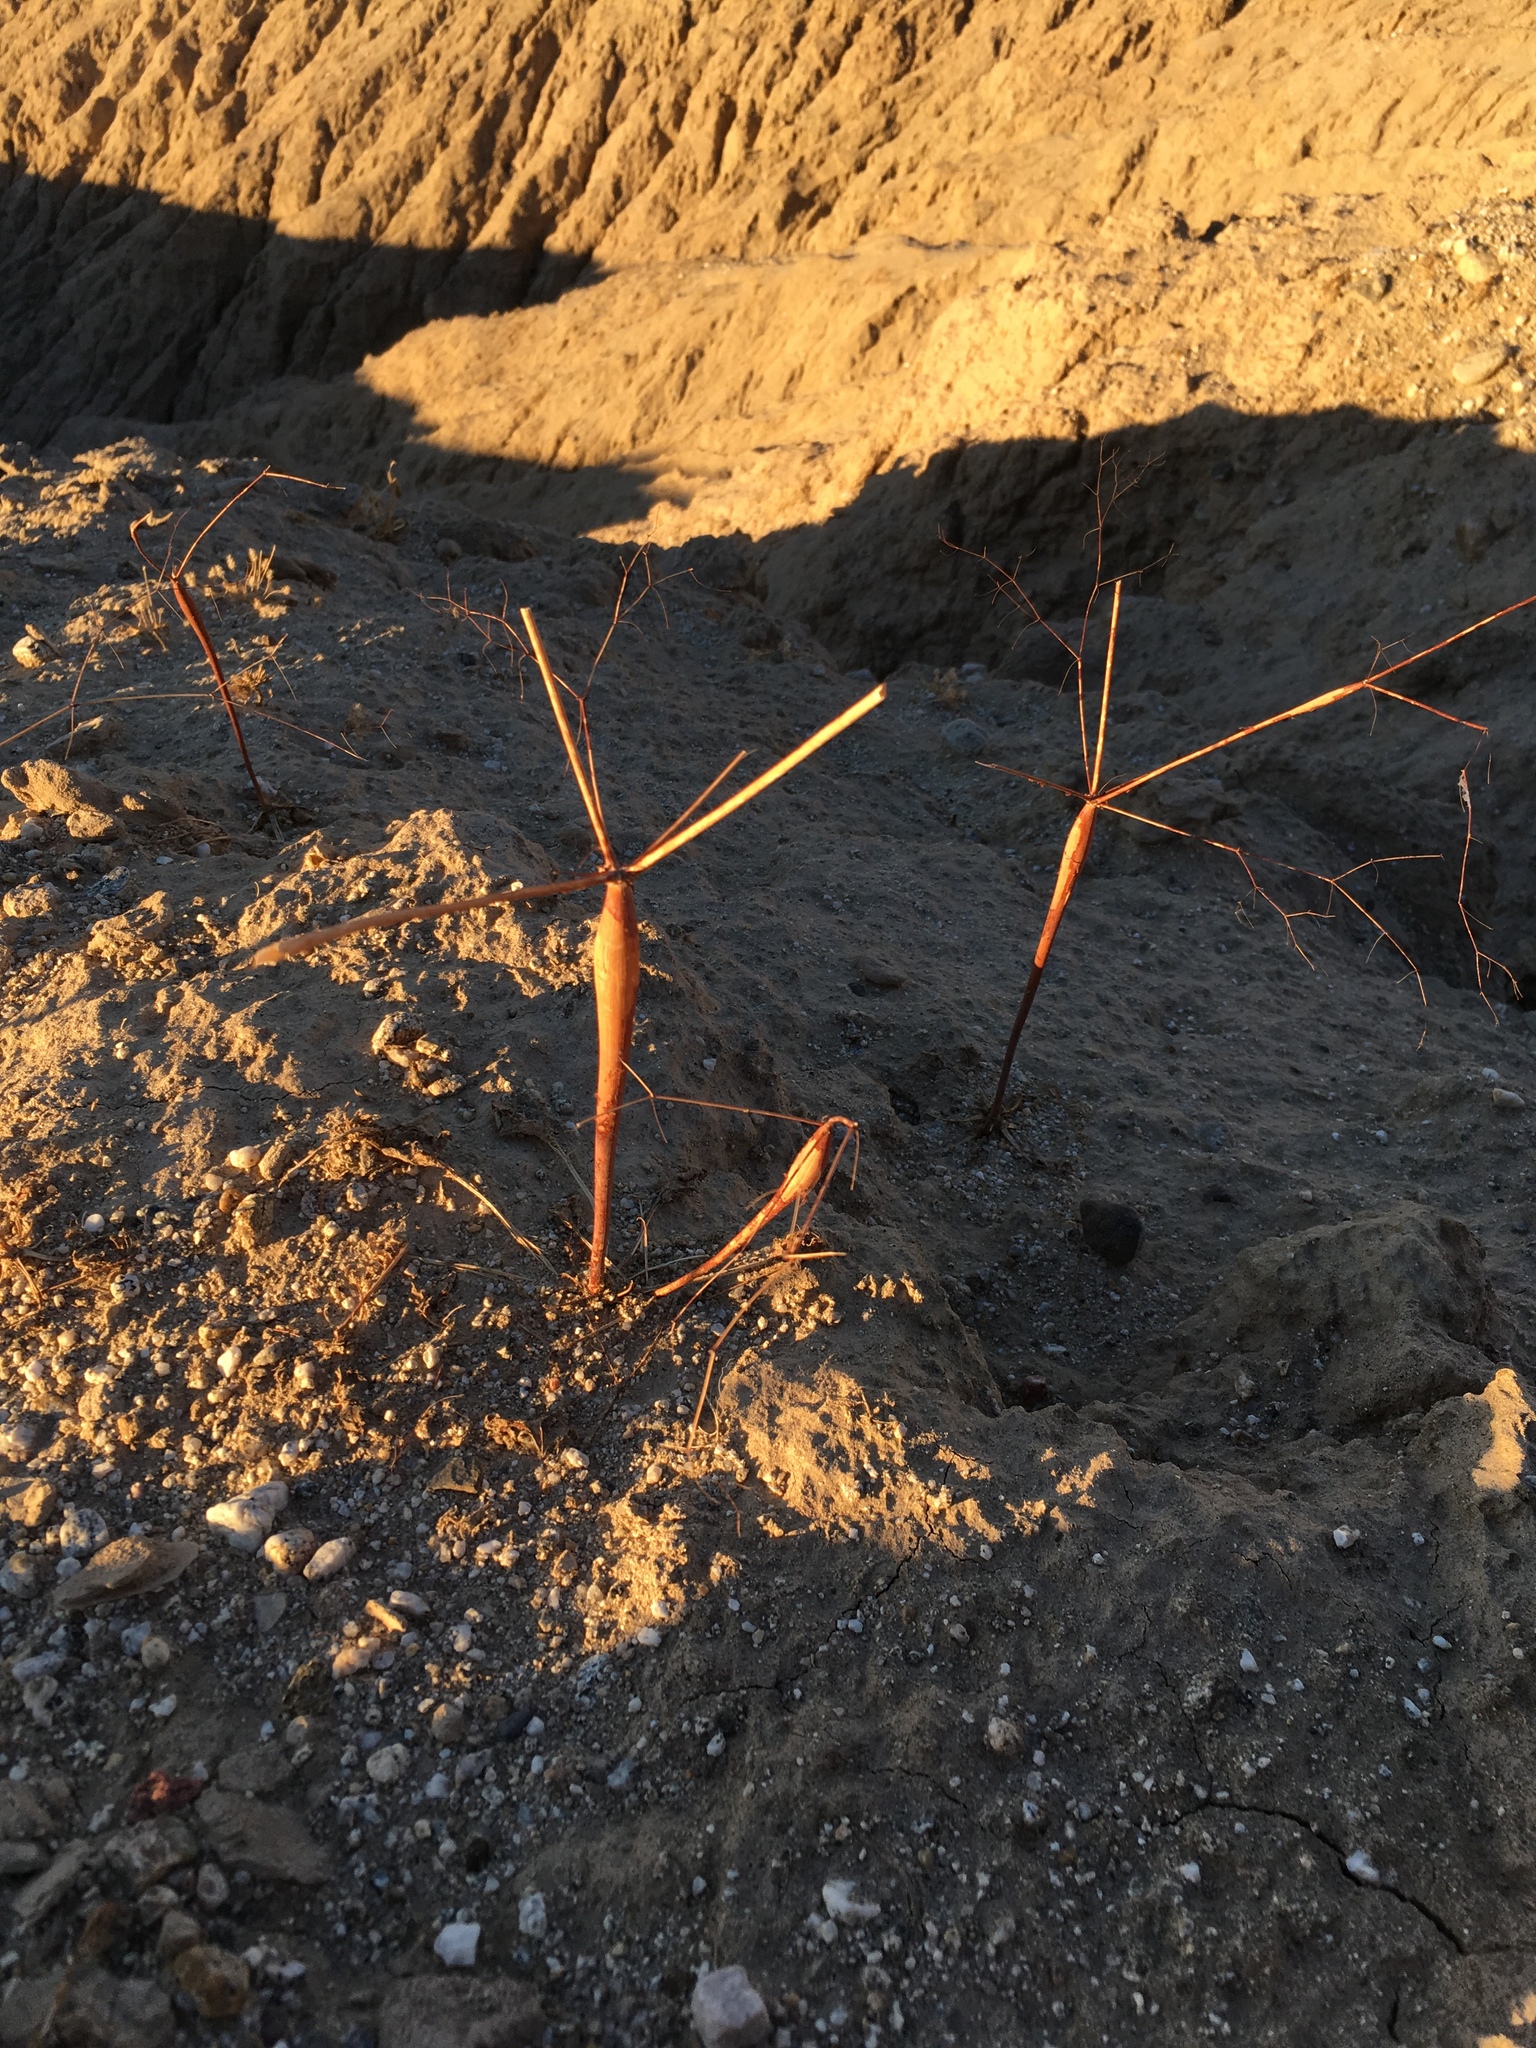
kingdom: Plantae
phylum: Tracheophyta
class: Magnoliopsida
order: Caryophyllales
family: Polygonaceae
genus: Eriogonum
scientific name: Eriogonum trichopes
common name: Little desert trumpet
